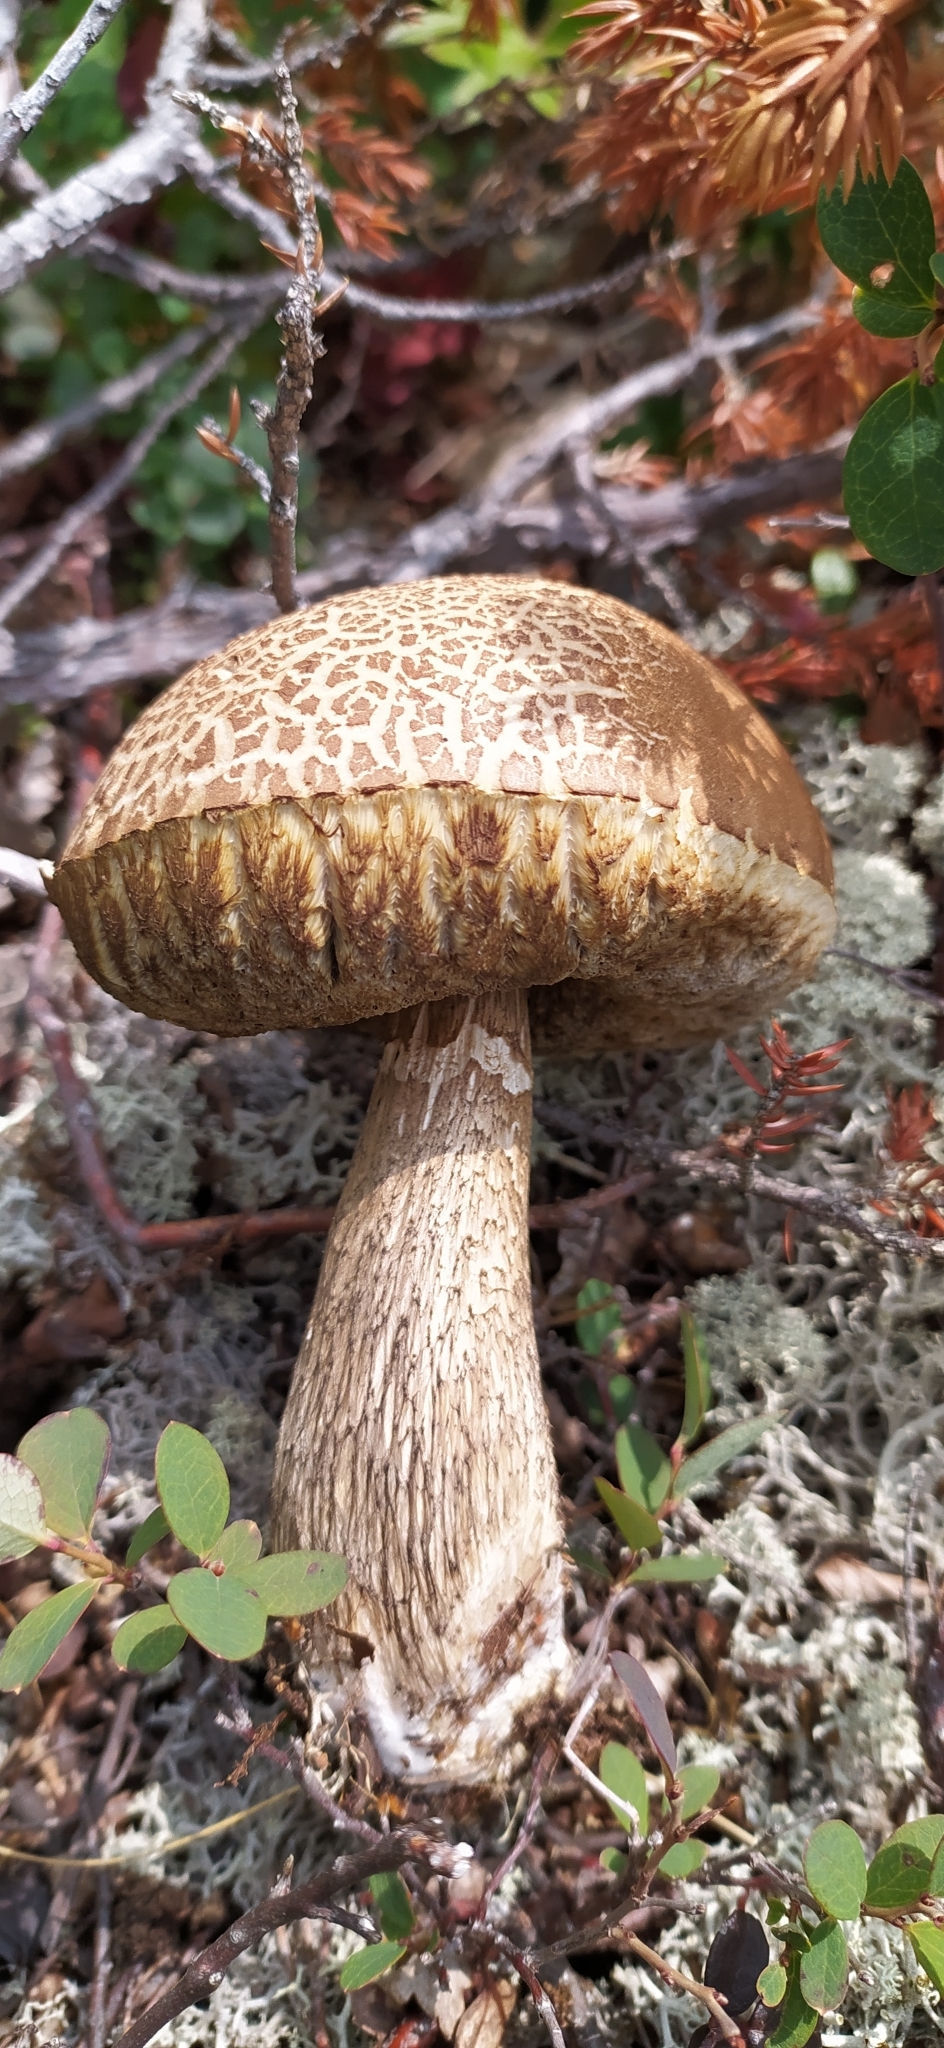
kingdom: Fungi
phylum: Basidiomycota
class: Agaricomycetes
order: Boletales
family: Boletaceae
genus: Leccinum
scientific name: Leccinum scabrum
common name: Blushing bolete
